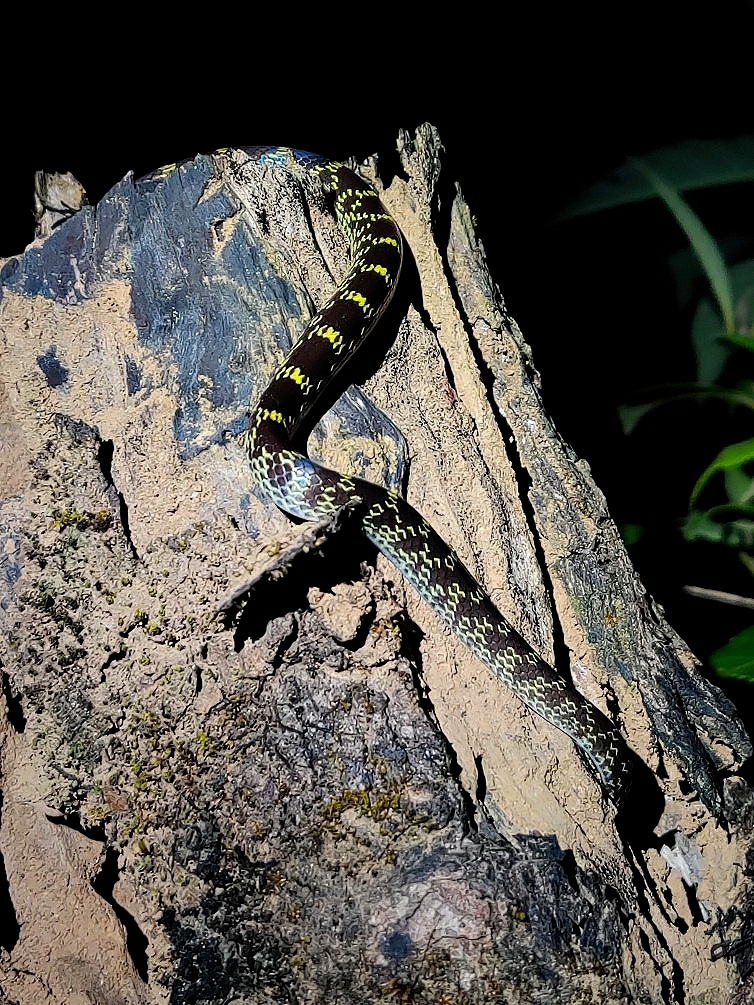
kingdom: Animalia
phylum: Chordata
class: Squamata
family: Colubridae
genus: Lycodon
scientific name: Lycodon travancoricus
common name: Travancore wolf snake
